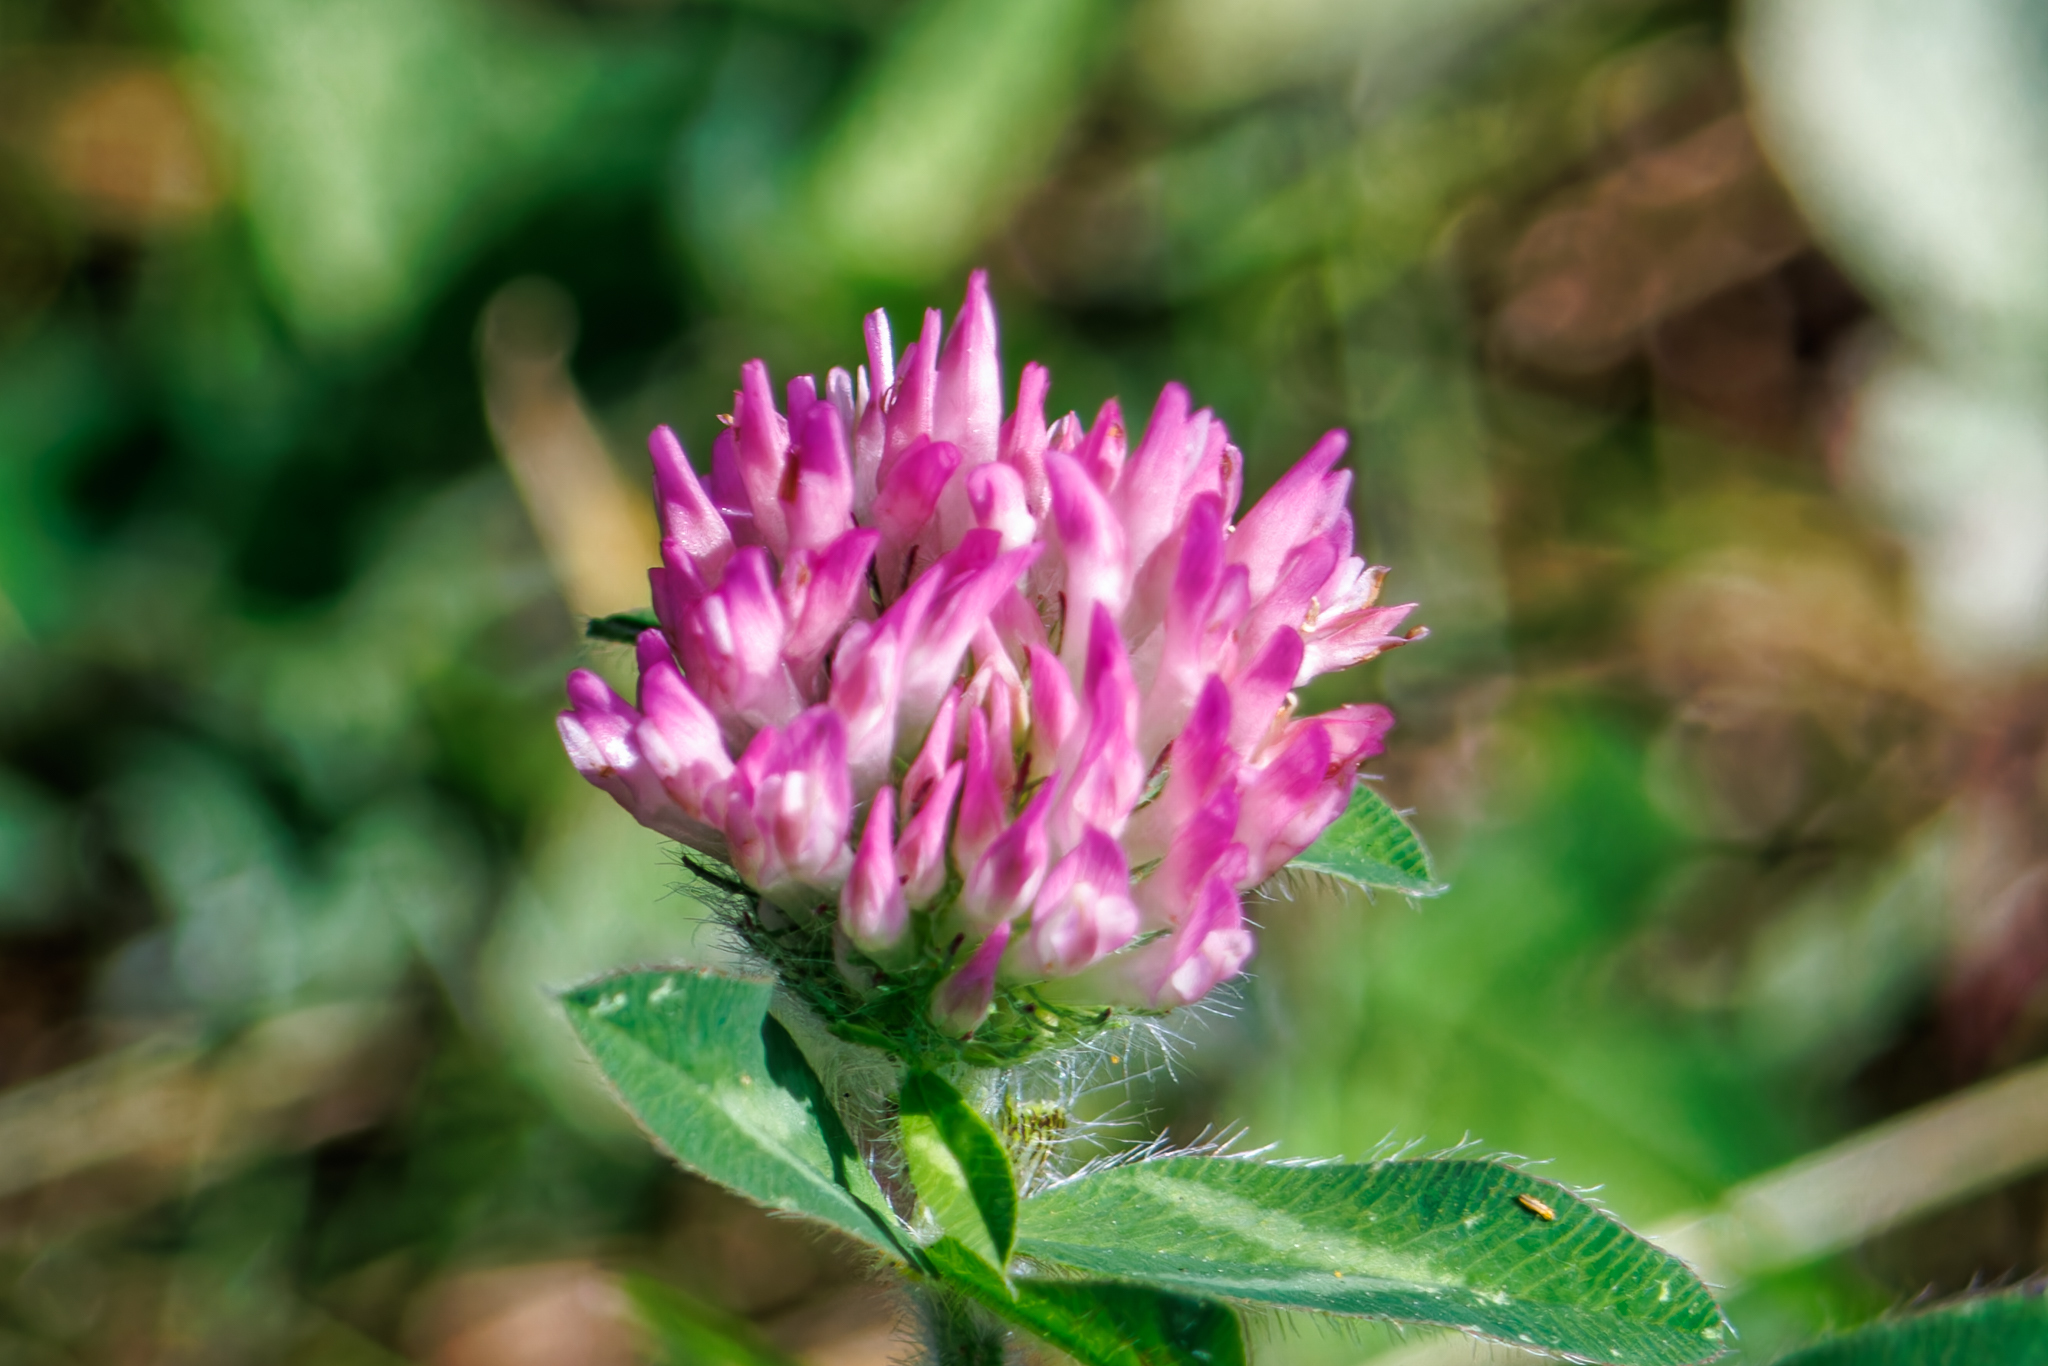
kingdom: Plantae
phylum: Tracheophyta
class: Magnoliopsida
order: Fabales
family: Fabaceae
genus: Trifolium
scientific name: Trifolium pratense
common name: Red clover
